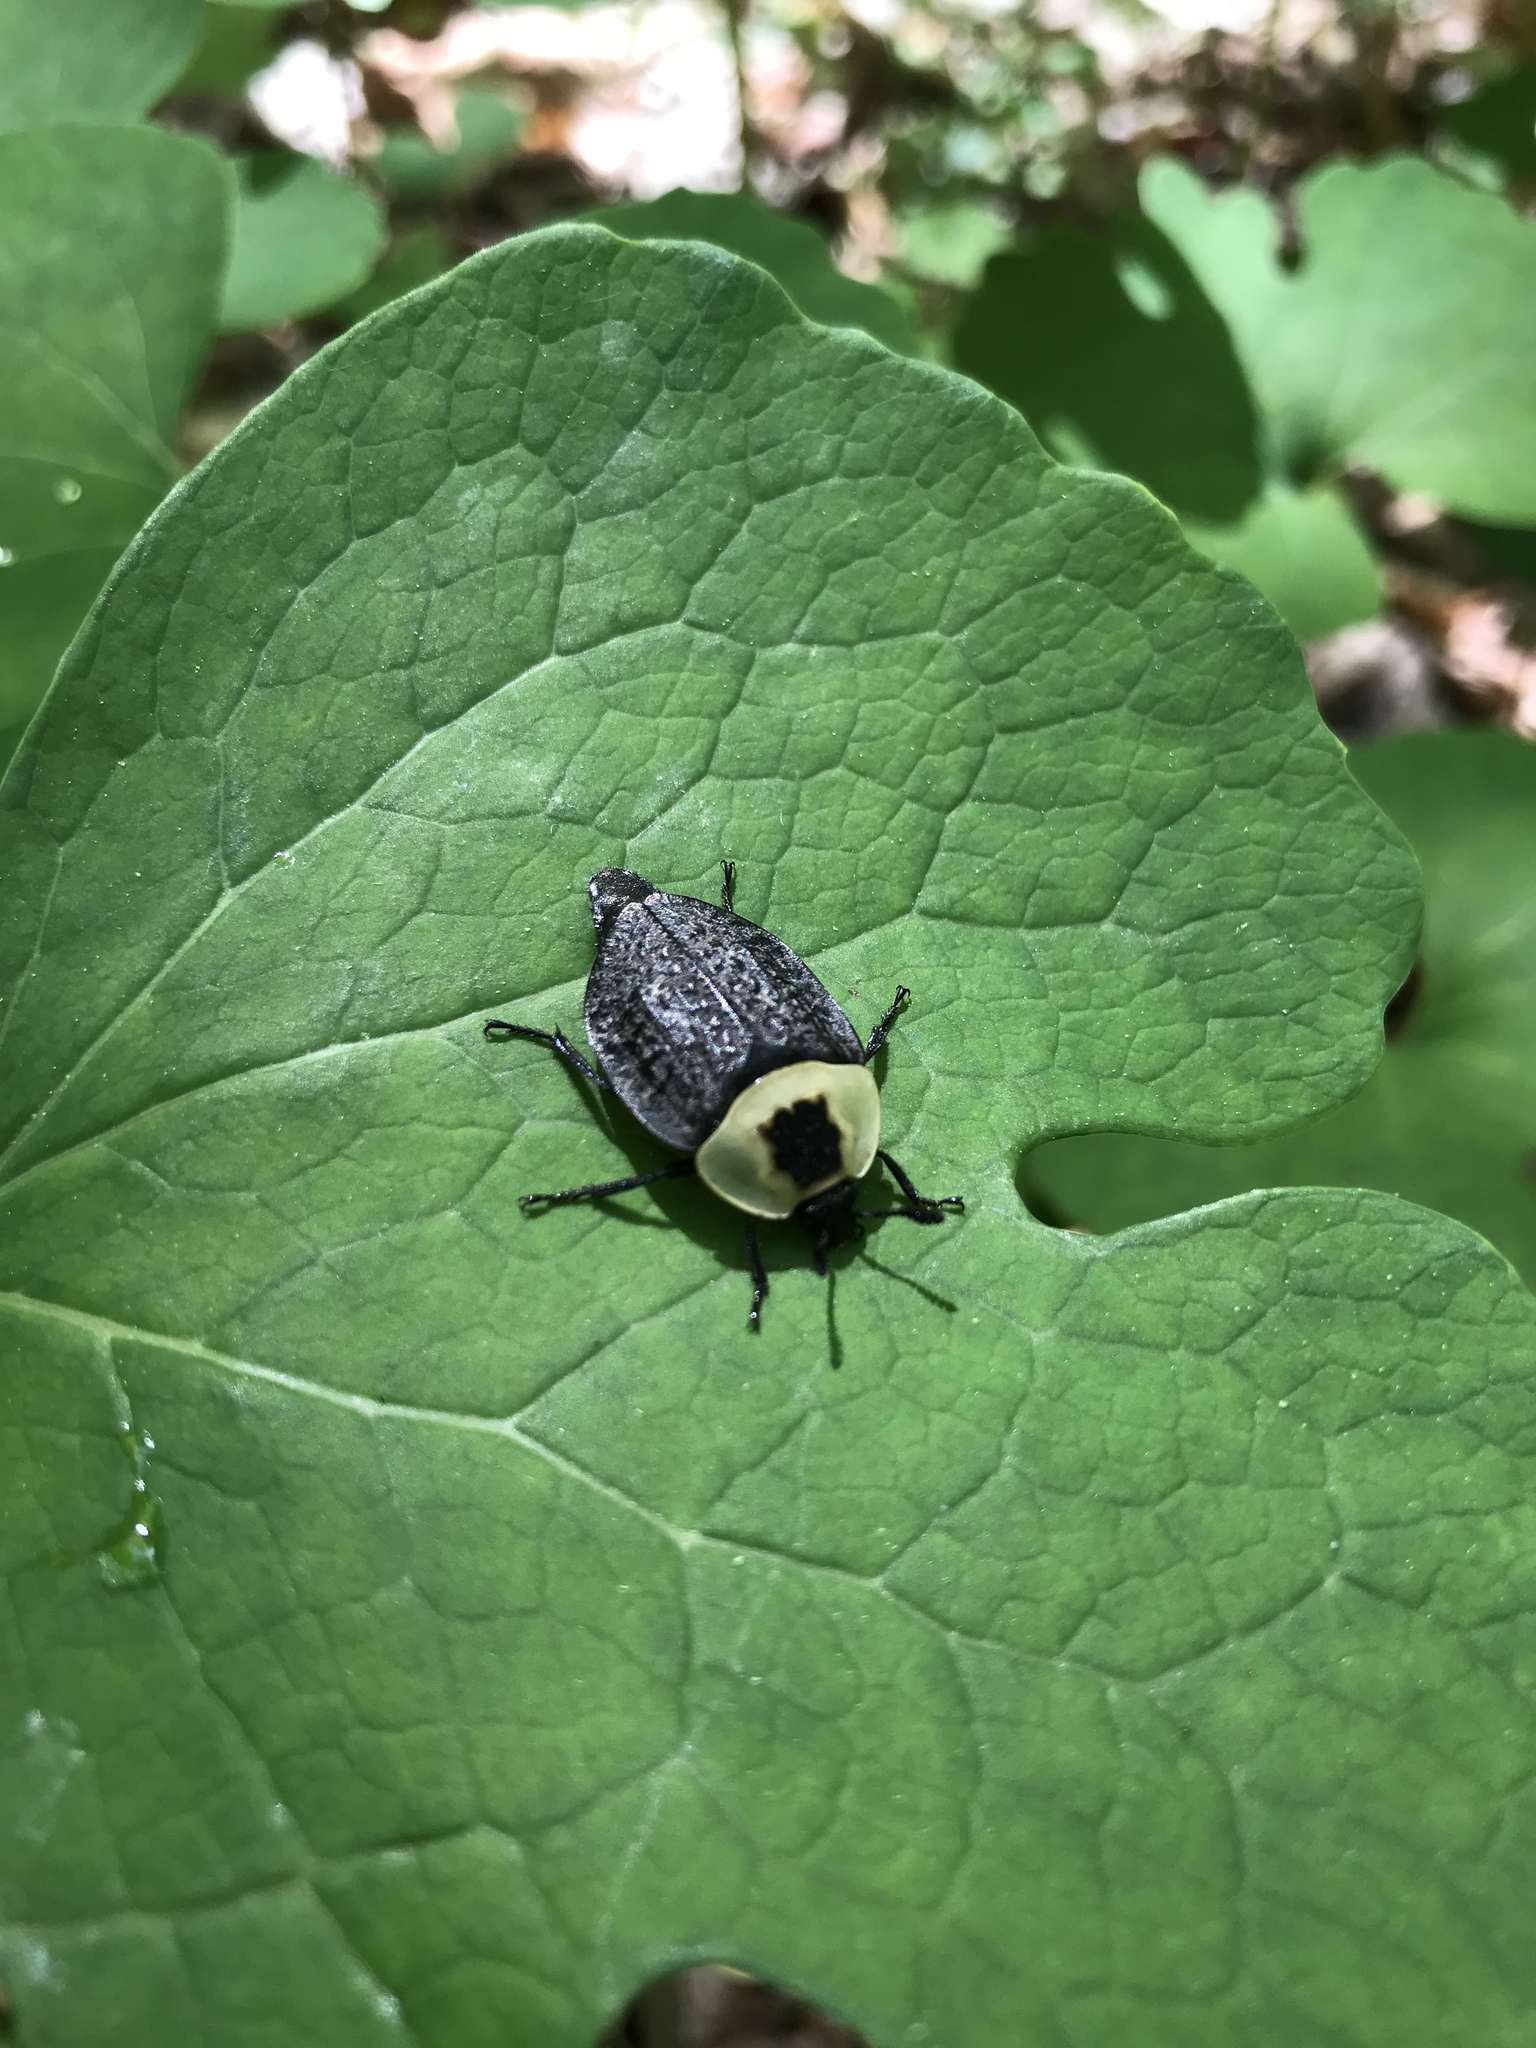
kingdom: Animalia
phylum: Arthropoda
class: Insecta
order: Coleoptera
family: Staphylinidae
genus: Necrophila
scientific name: Necrophila americana
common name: American carrion beetle
